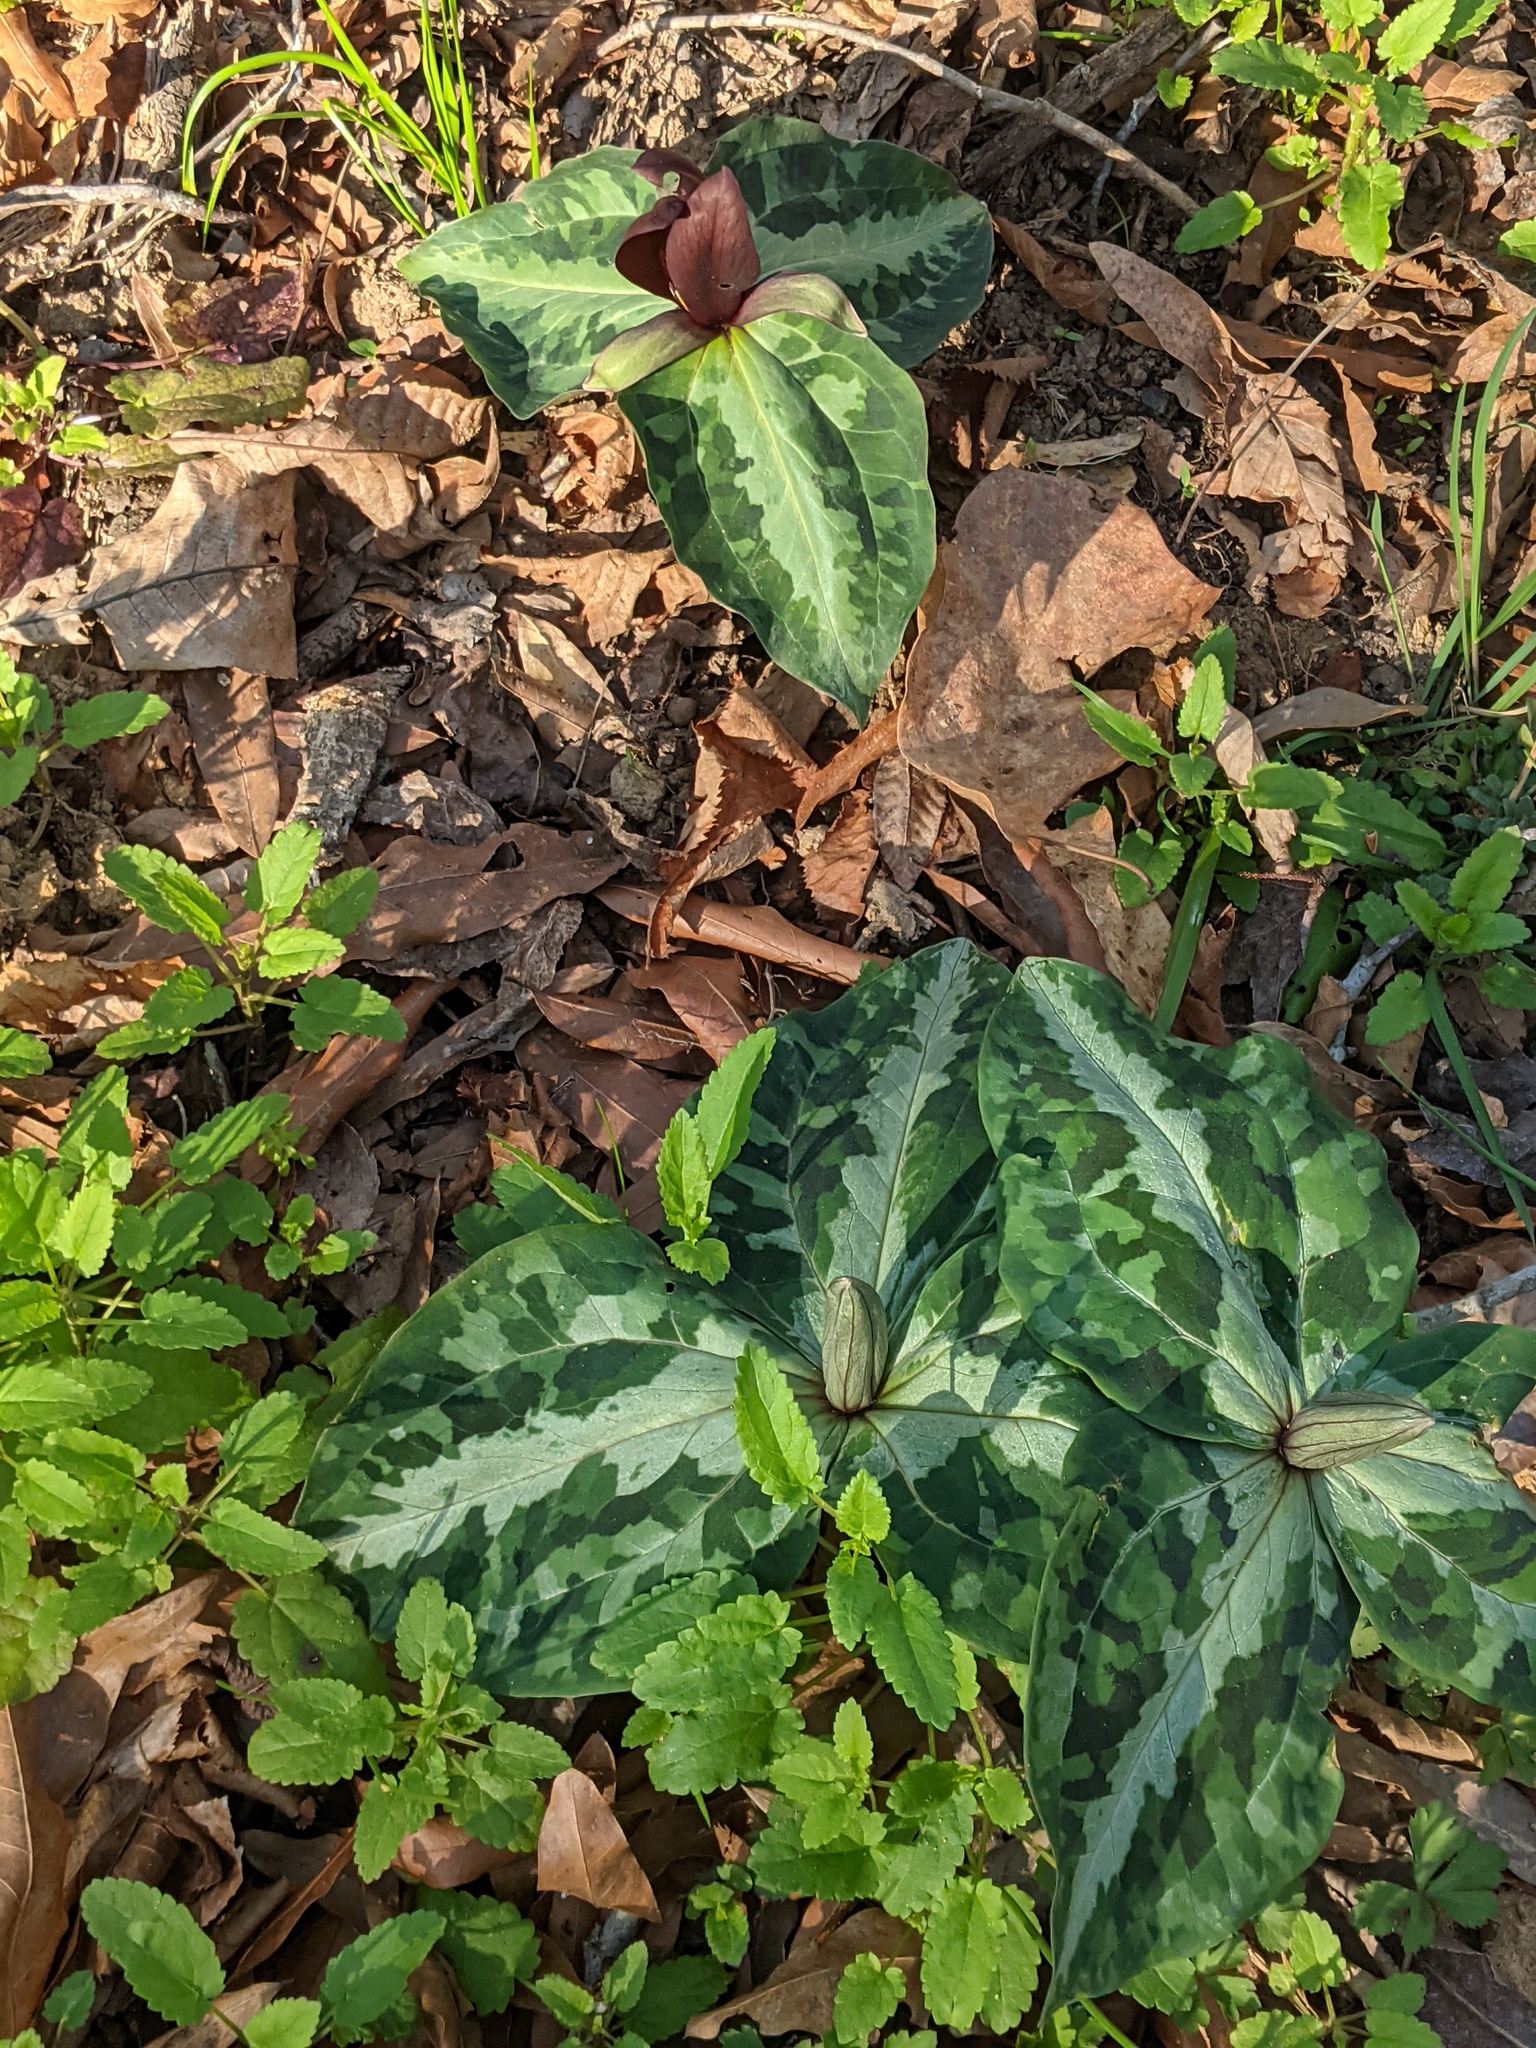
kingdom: Plantae
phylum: Tracheophyta
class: Liliopsida
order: Liliales
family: Melanthiaceae
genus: Trillium
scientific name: Trillium underwoodii
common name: Longbract wakerobin
